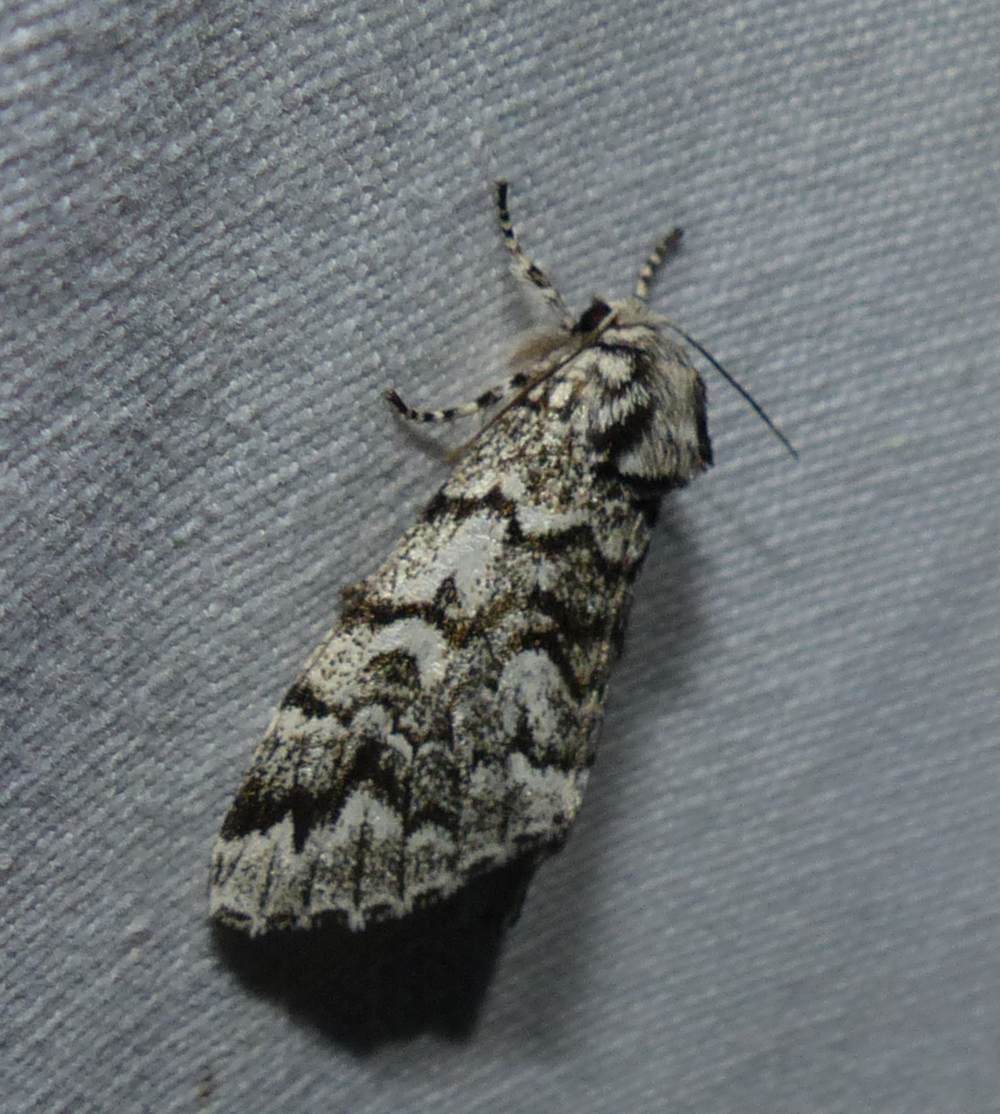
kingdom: Animalia
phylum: Arthropoda
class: Insecta
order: Lepidoptera
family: Noctuidae
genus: Panthea
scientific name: Panthea acronyctoides
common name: Black zigzag moth
